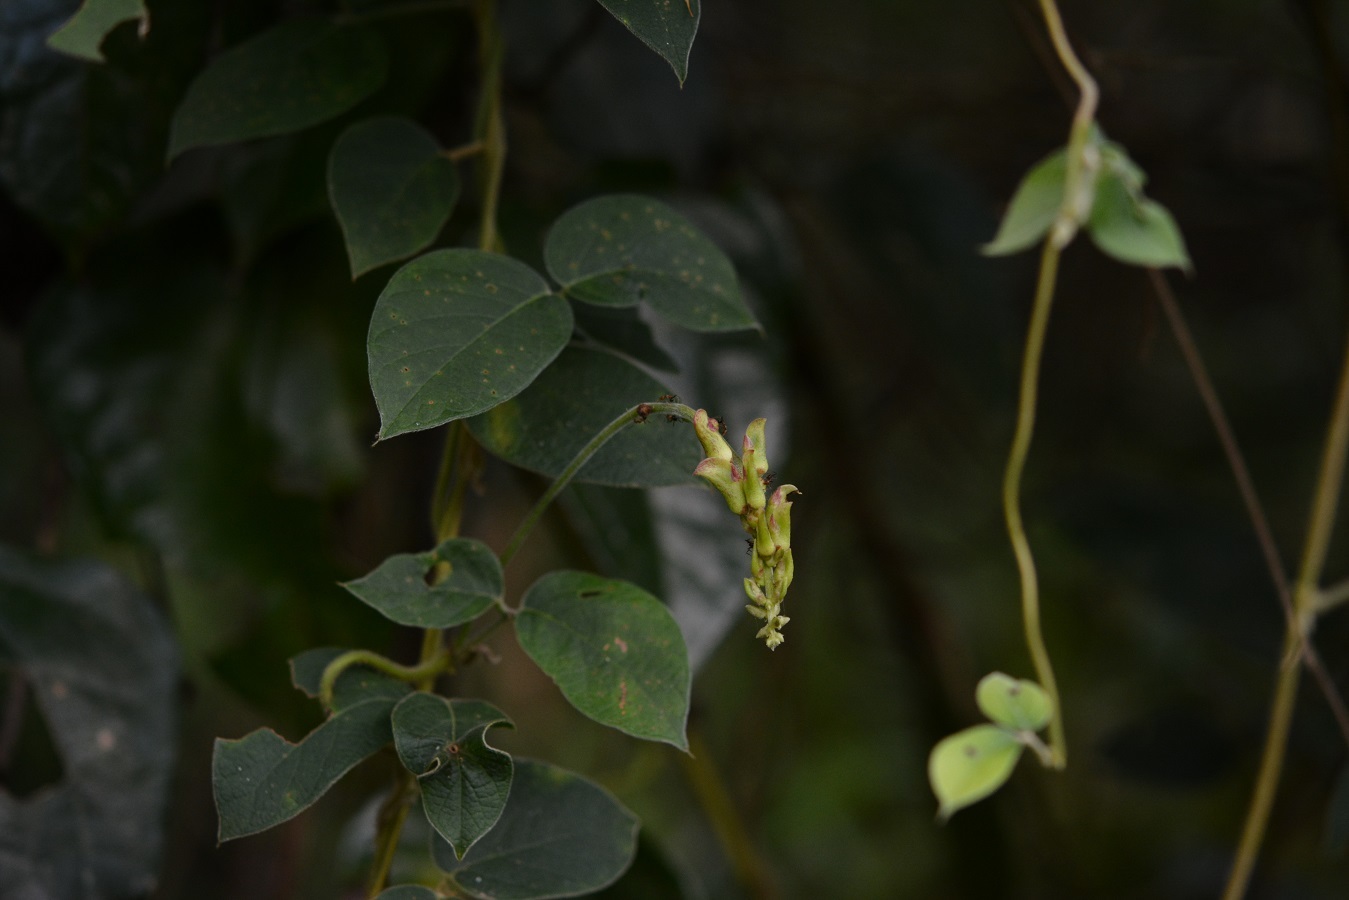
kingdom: Plantae
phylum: Tracheophyta
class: Magnoliopsida
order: Fabales
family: Fabaceae
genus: Canavalia
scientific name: Canavalia oxyphylla
